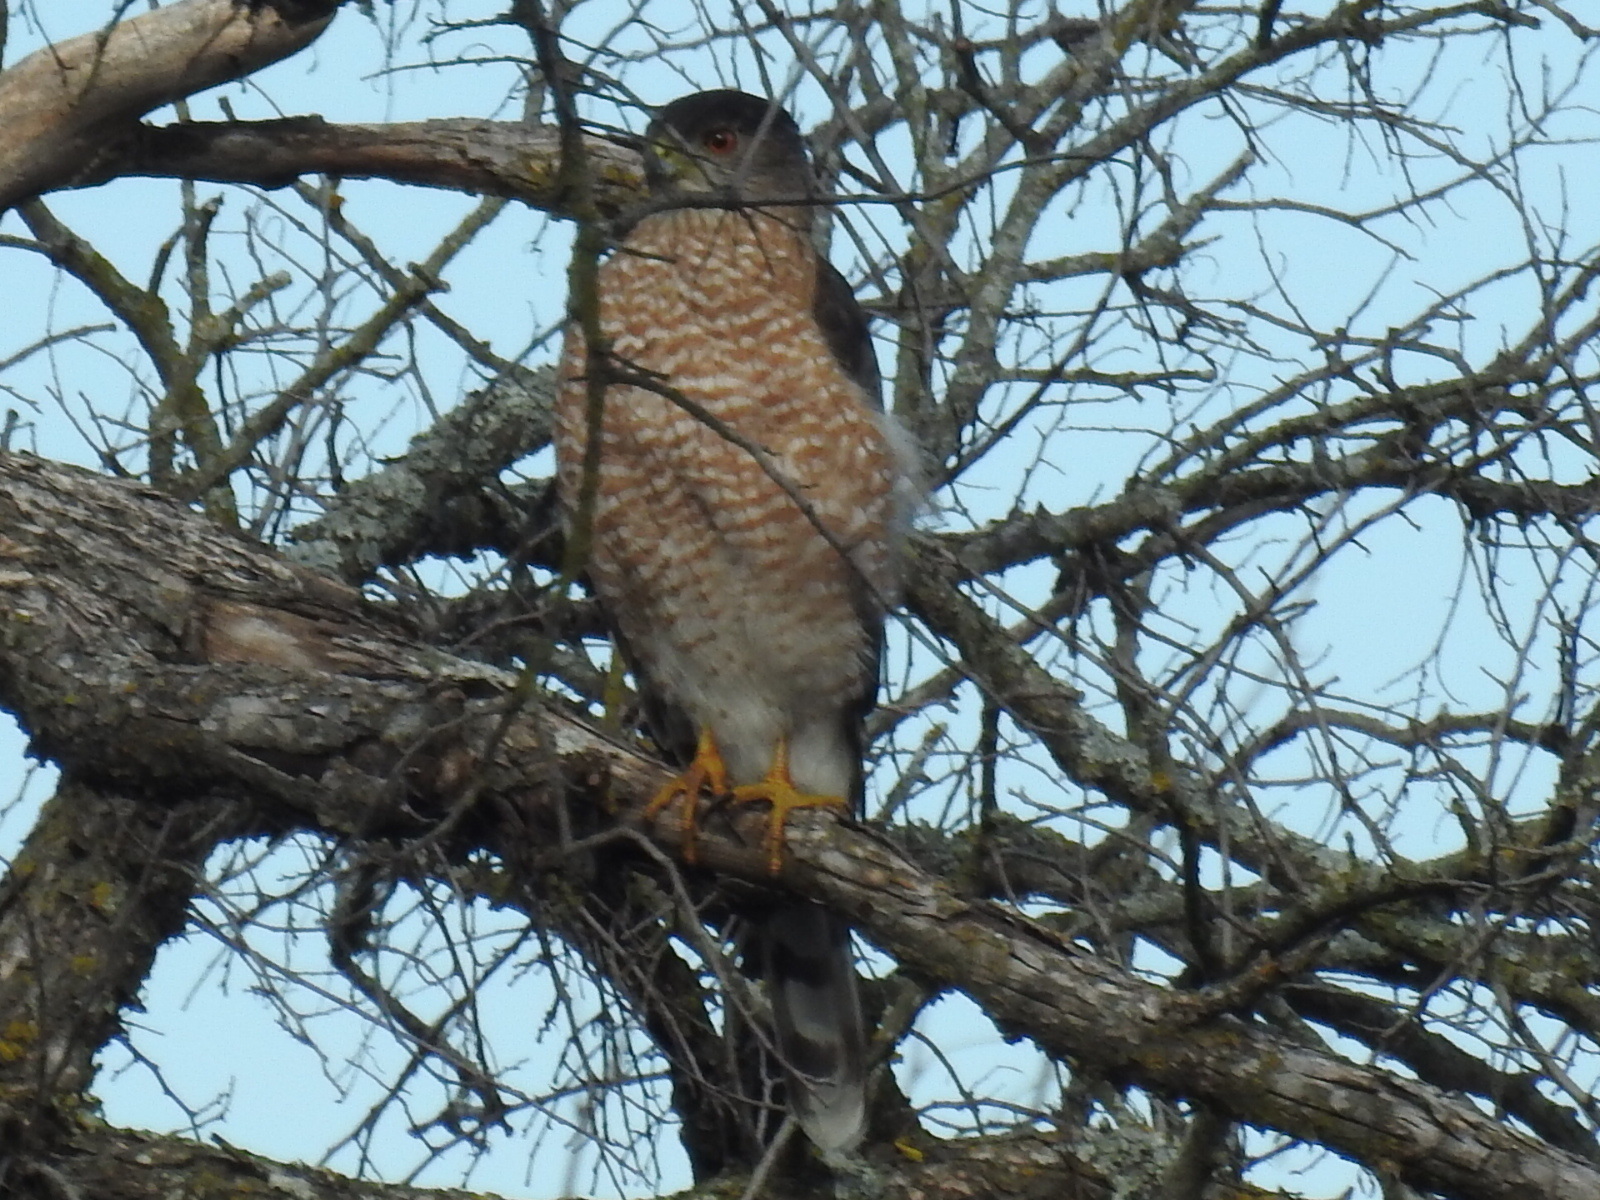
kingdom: Animalia
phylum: Chordata
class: Aves
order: Accipitriformes
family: Accipitridae
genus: Accipiter
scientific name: Accipiter cooperii
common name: Cooper's hawk
